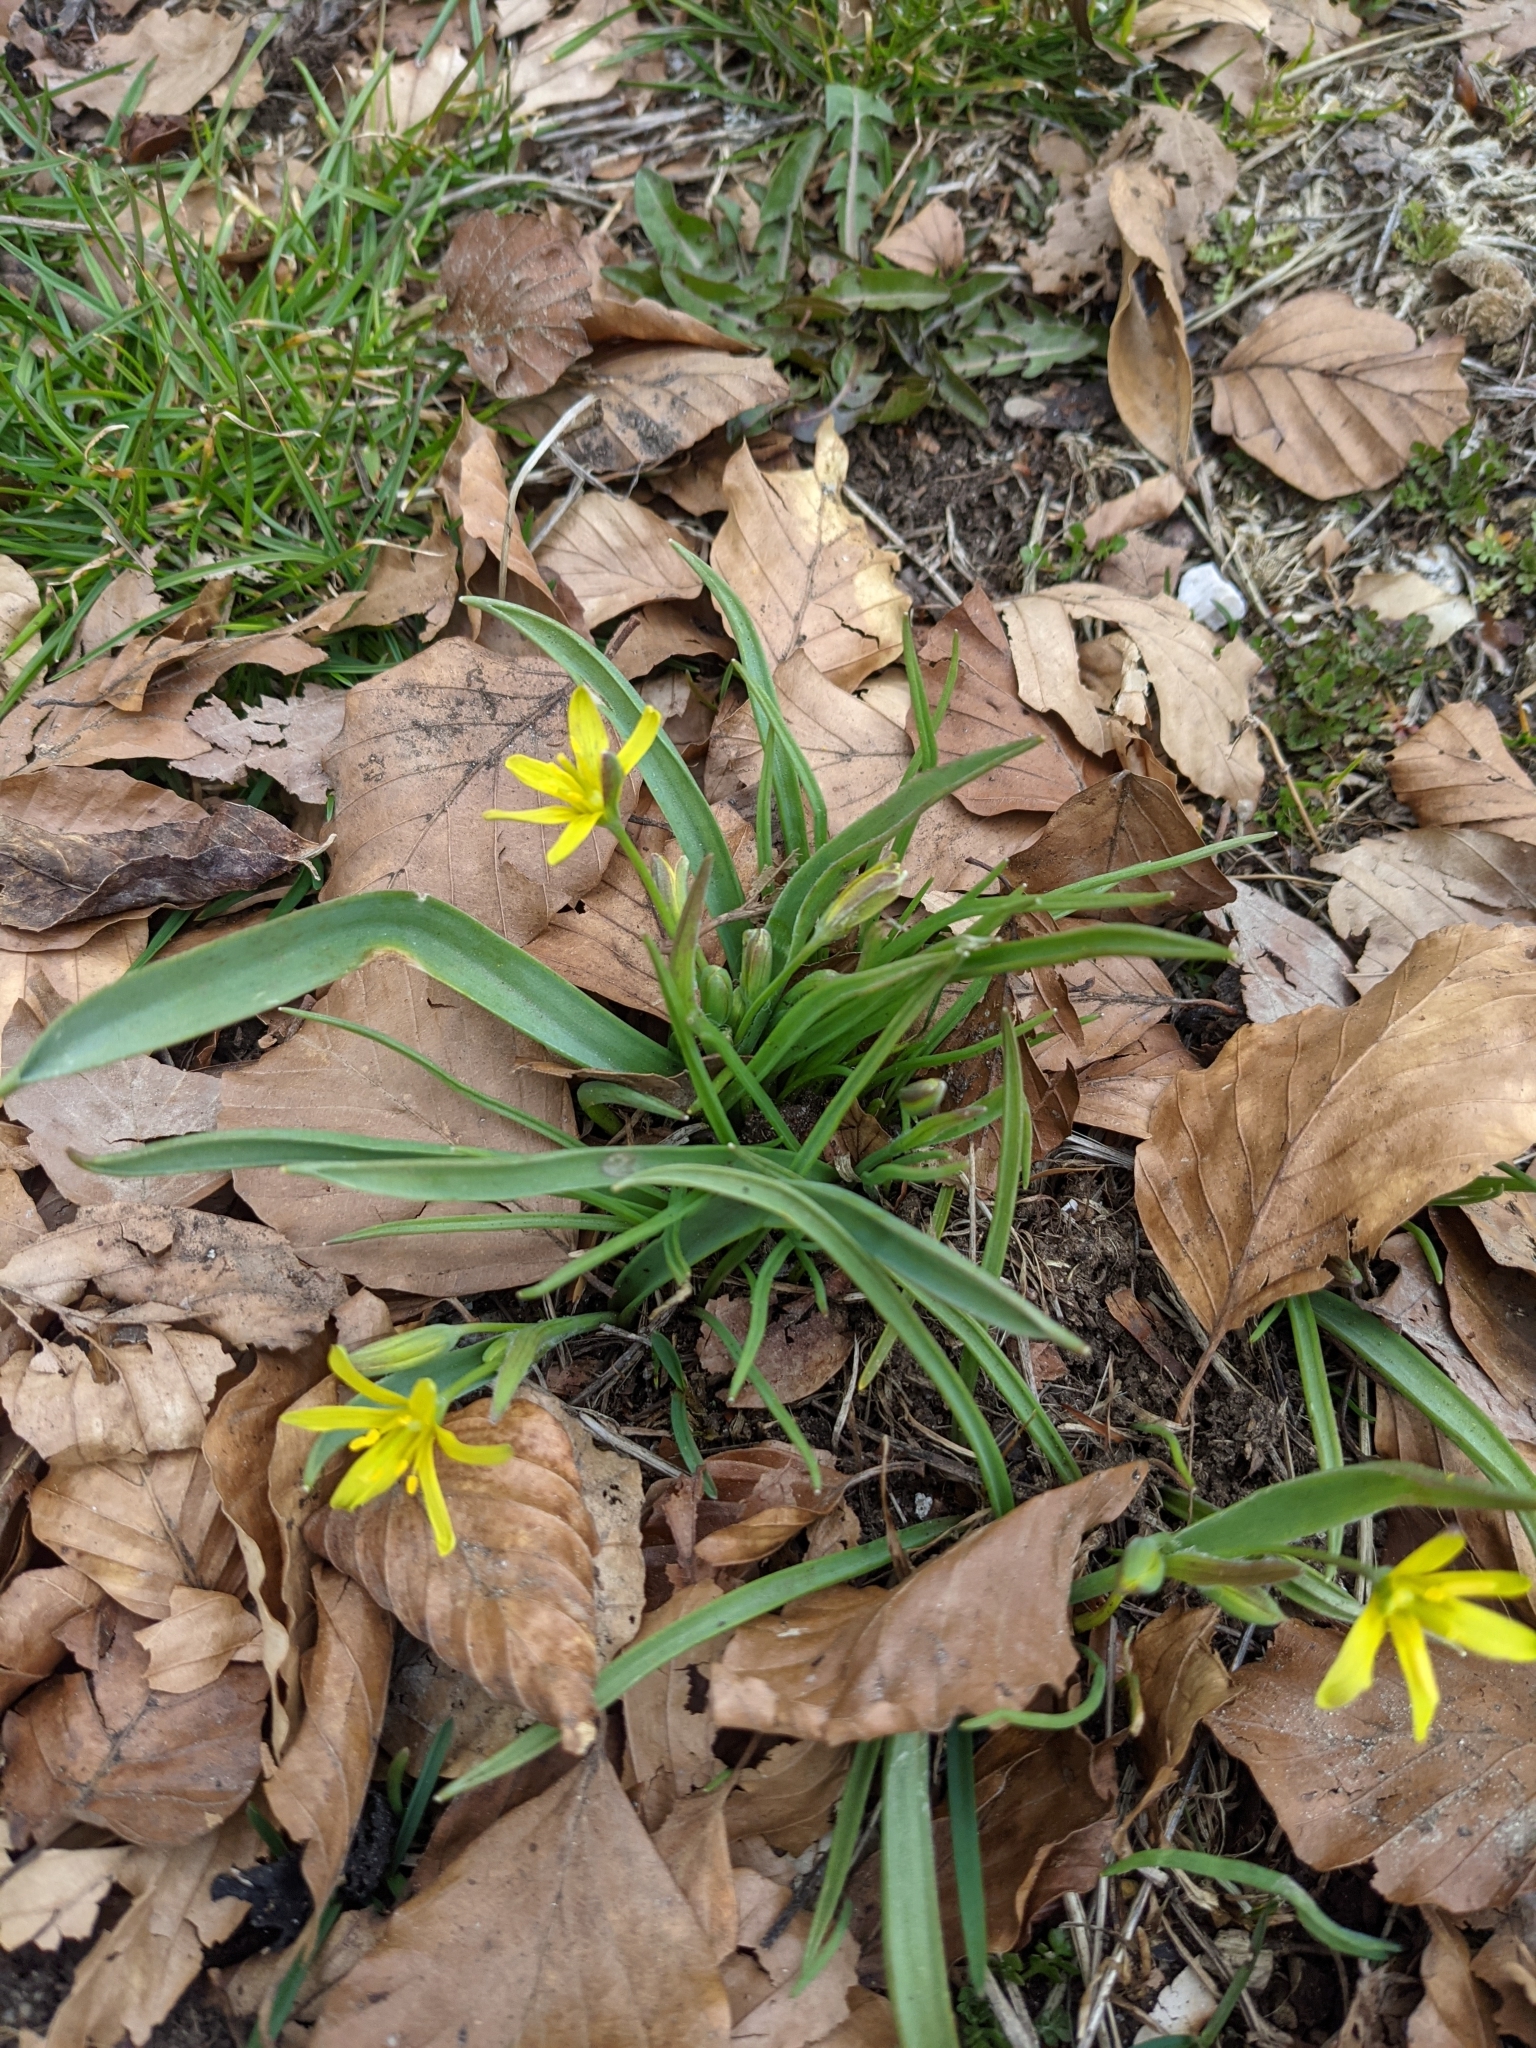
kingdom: Plantae
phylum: Tracheophyta
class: Liliopsida
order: Liliales
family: Liliaceae
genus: Gagea
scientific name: Gagea lutea
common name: Yellow star-of-bethlehem
